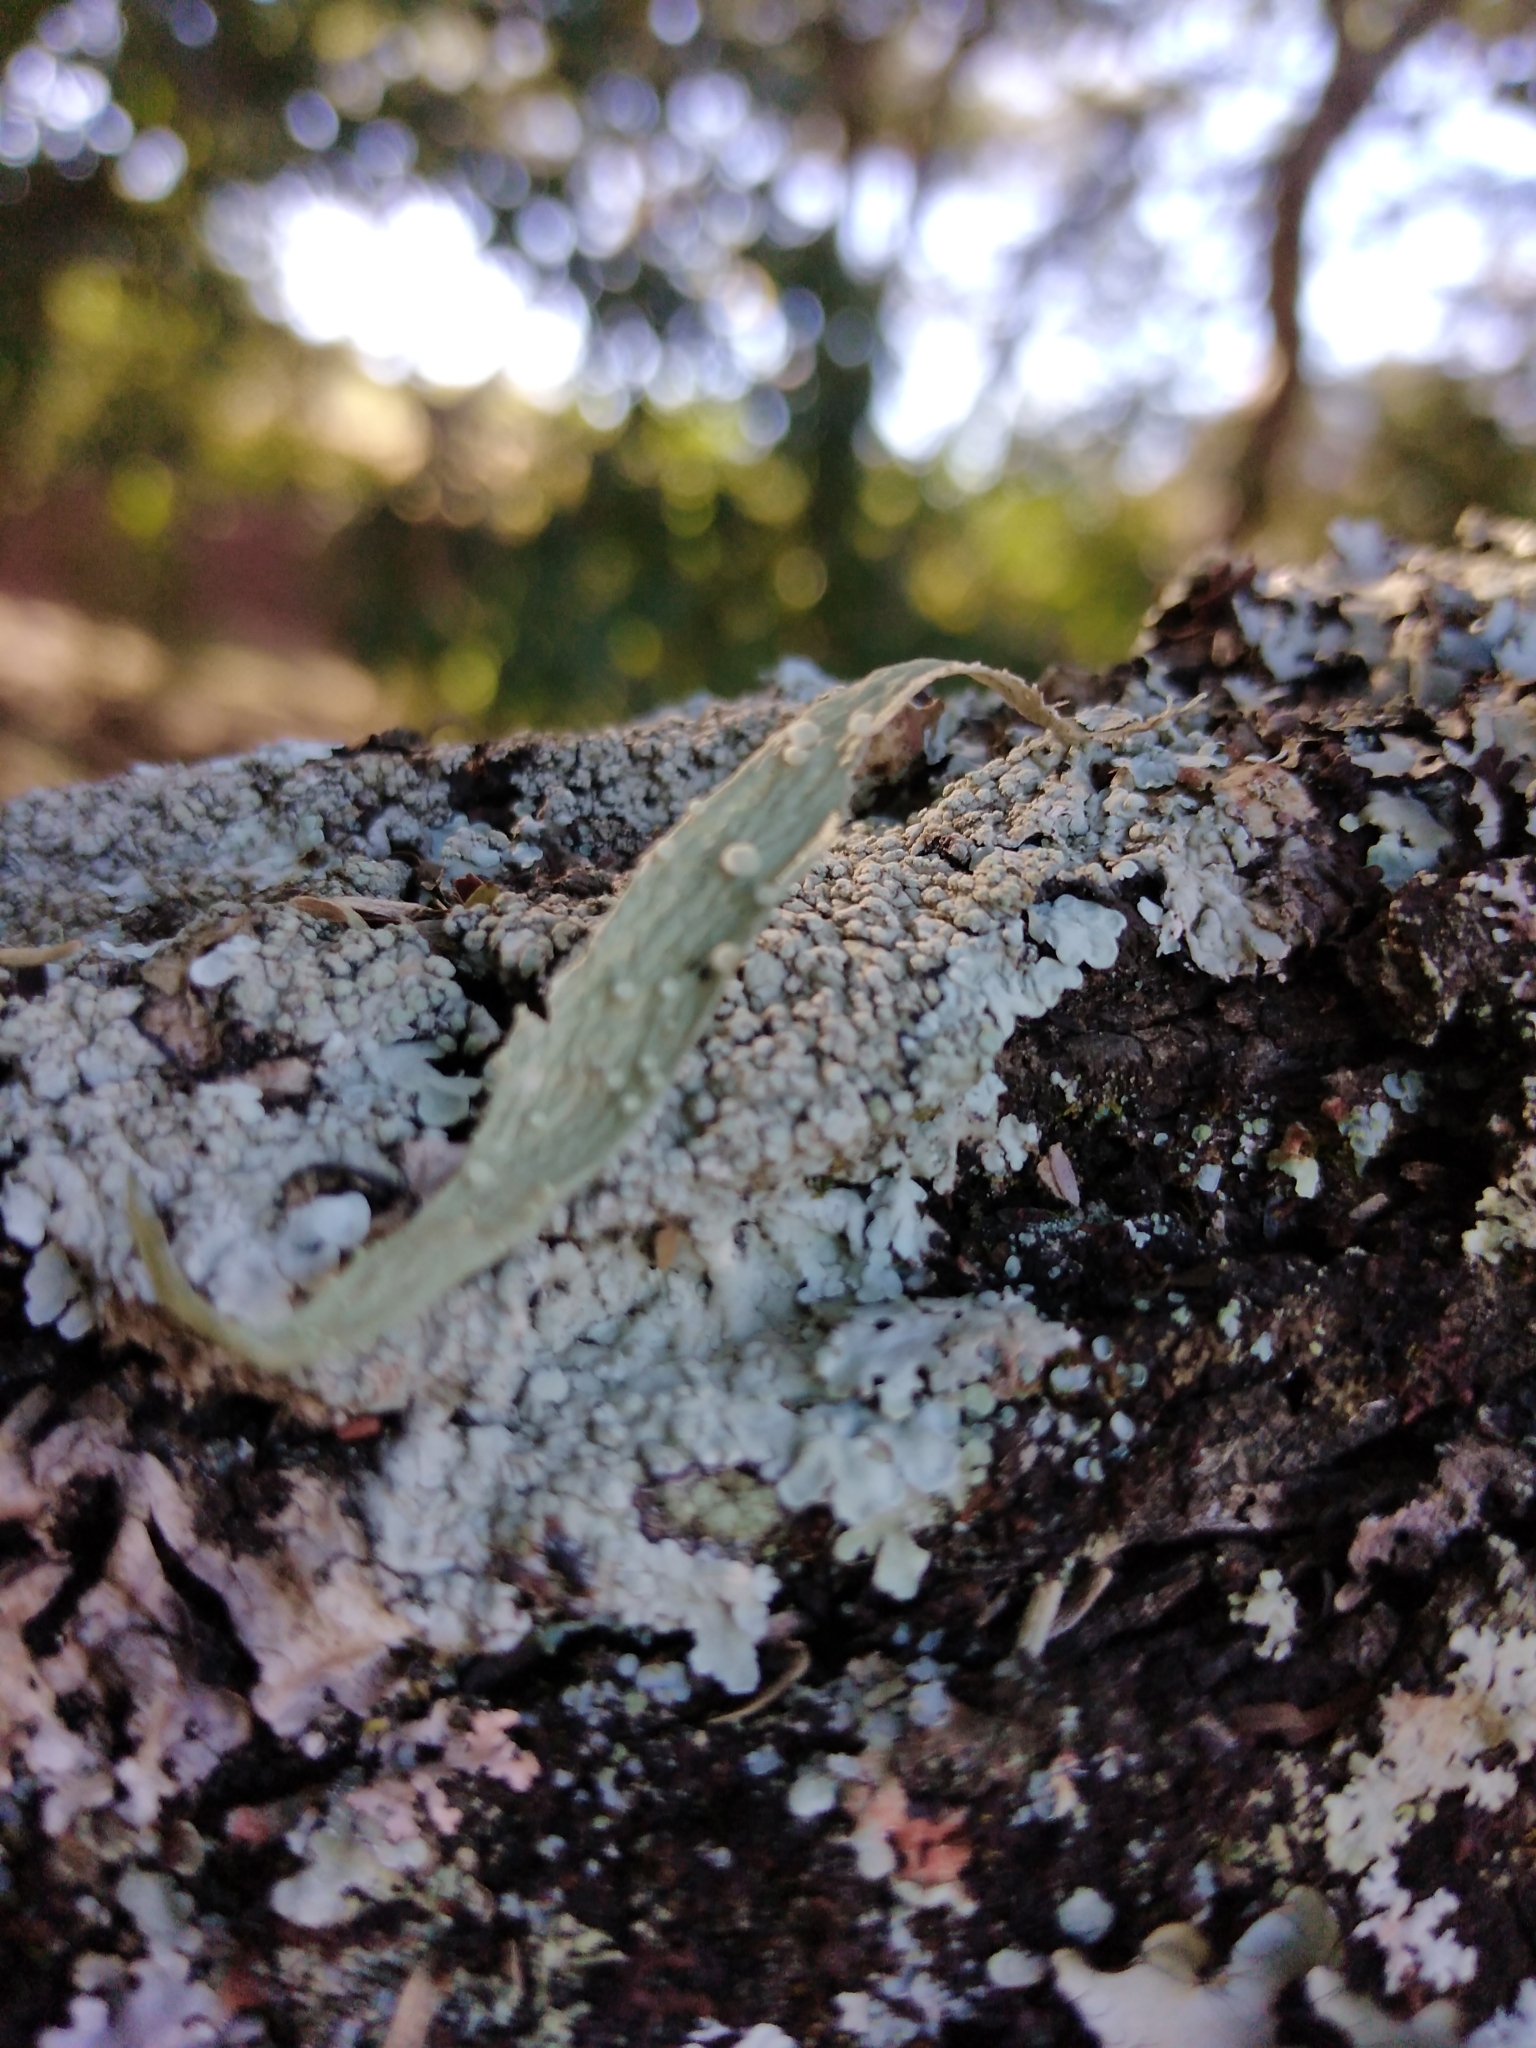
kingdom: Fungi
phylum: Ascomycota
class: Lecanoromycetes
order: Lecanorales
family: Ramalinaceae
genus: Ramalina
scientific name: Ramalina celastri
